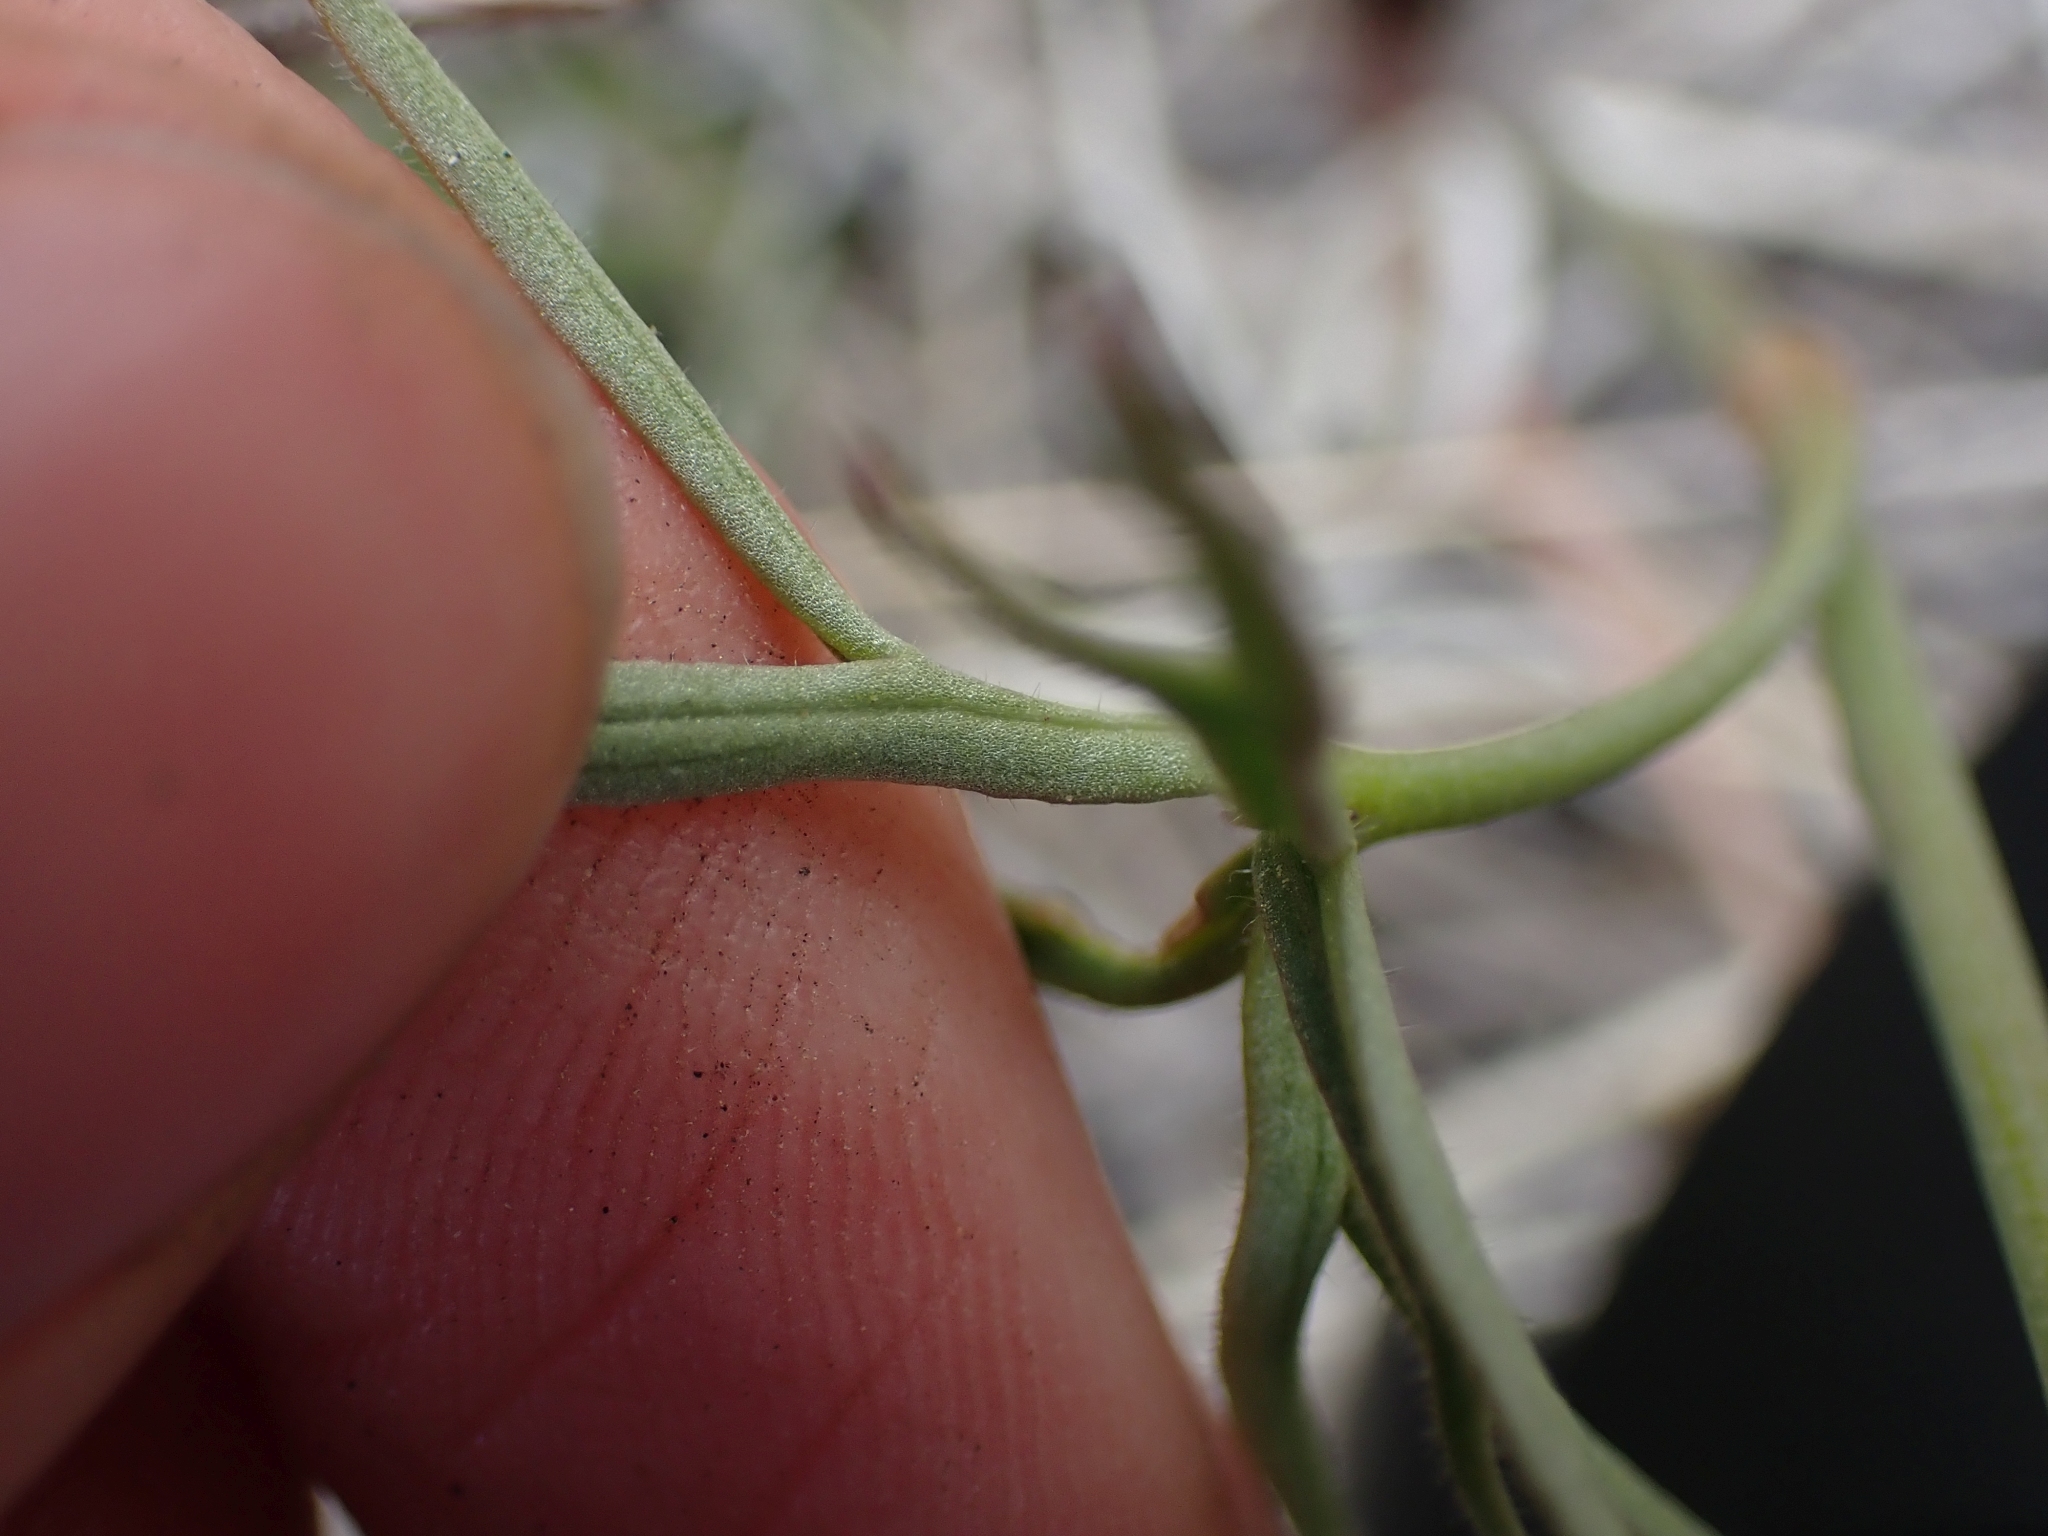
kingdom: Plantae
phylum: Tracheophyta
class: Magnoliopsida
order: Ranunculales
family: Ranunculaceae
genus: Delphinium
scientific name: Delphinium nuttallianum
